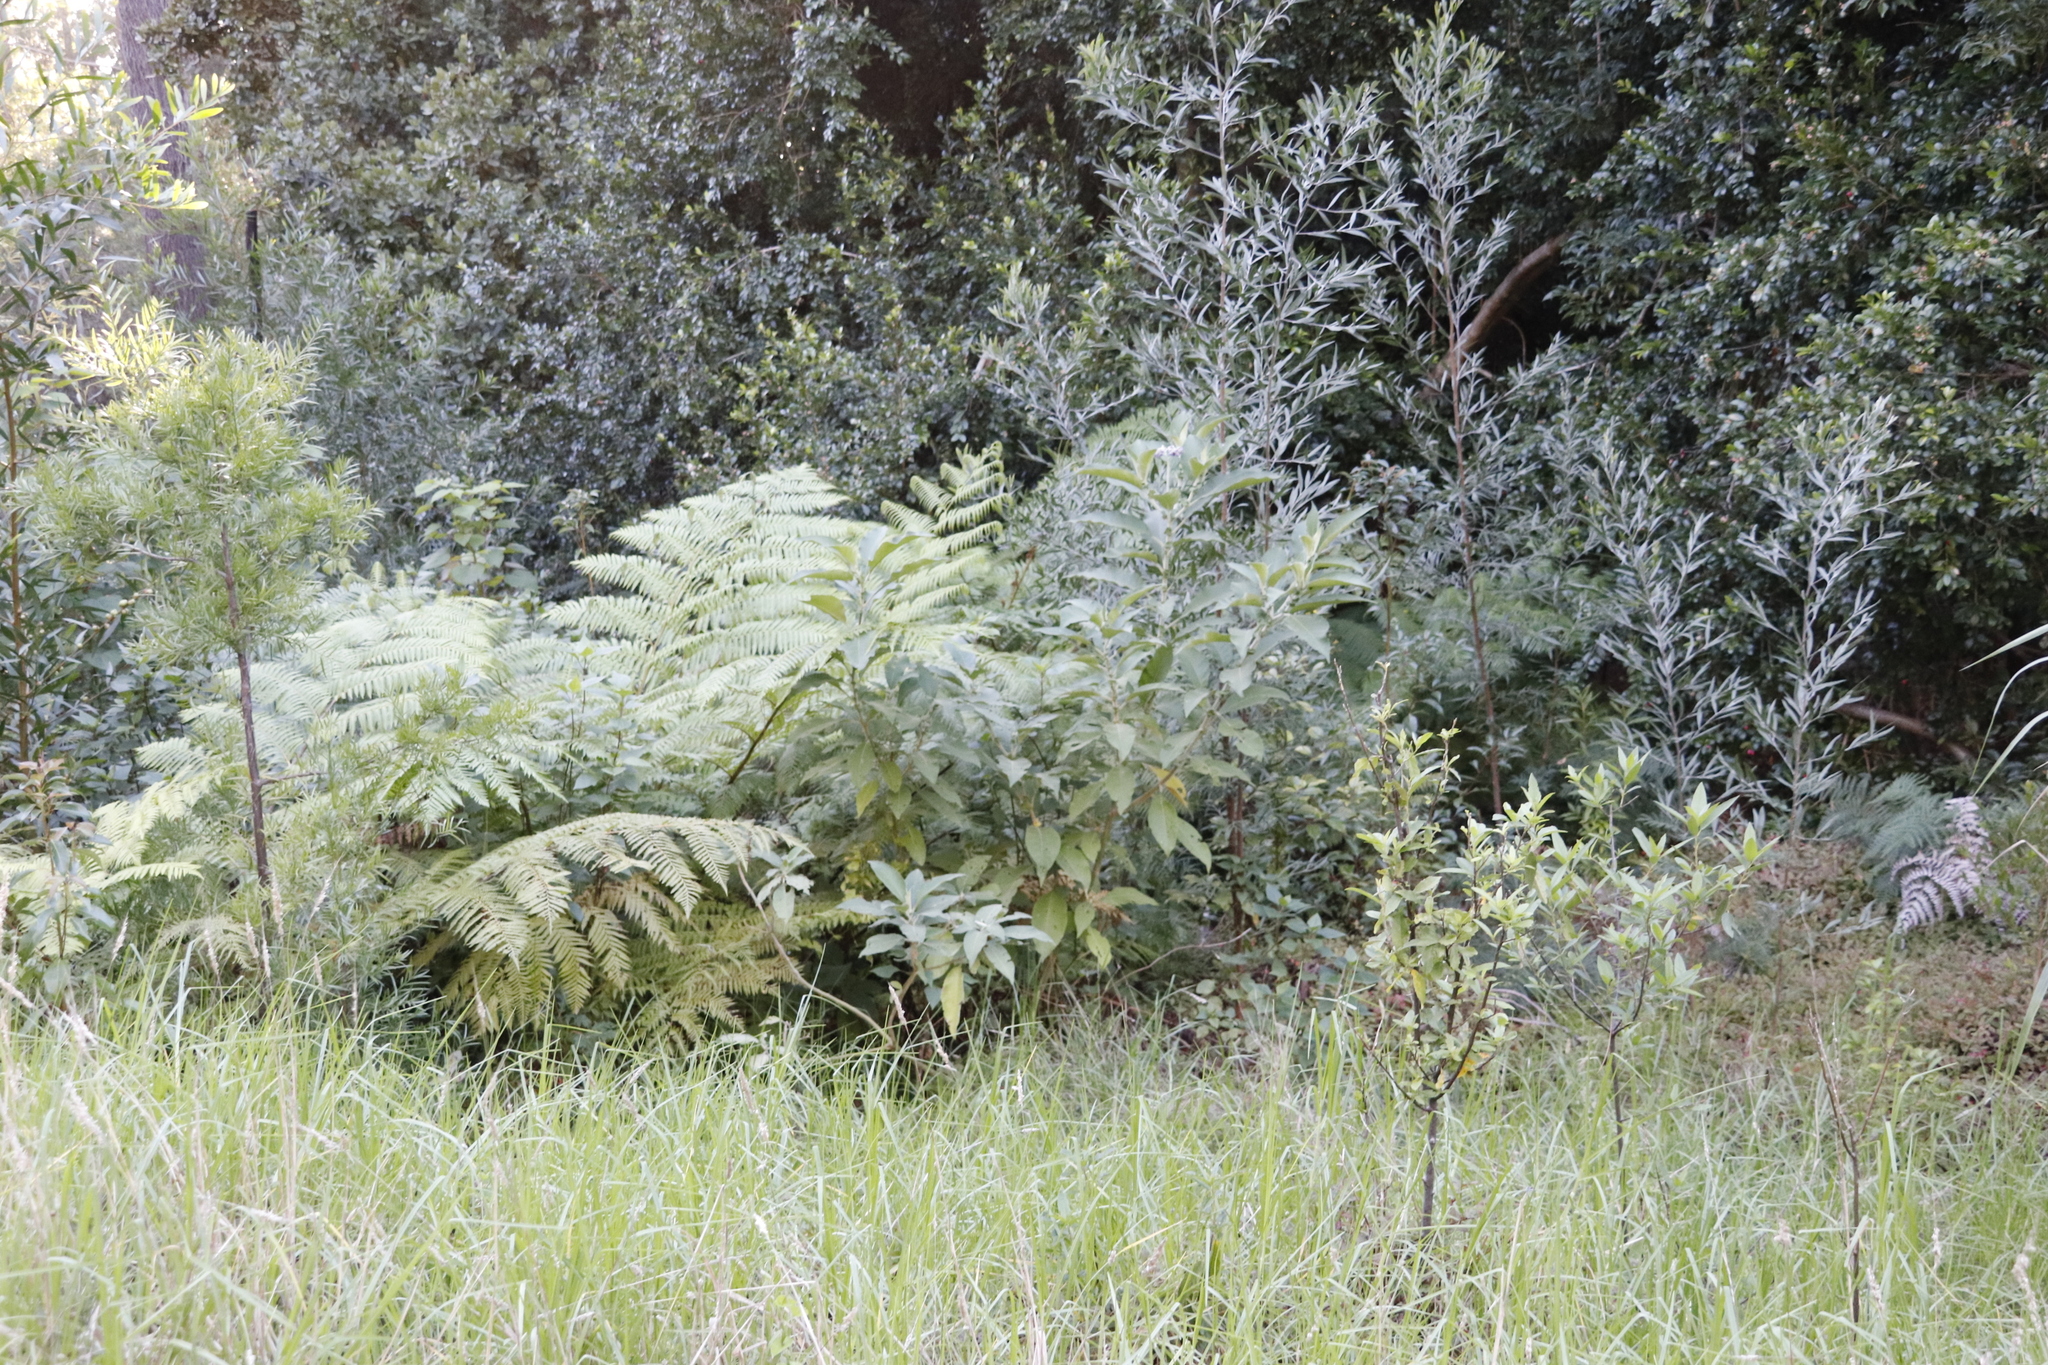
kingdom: Plantae
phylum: Tracheophyta
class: Magnoliopsida
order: Solanales
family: Solanaceae
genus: Solanum
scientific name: Solanum mauritianum
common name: Earleaf nightshade
